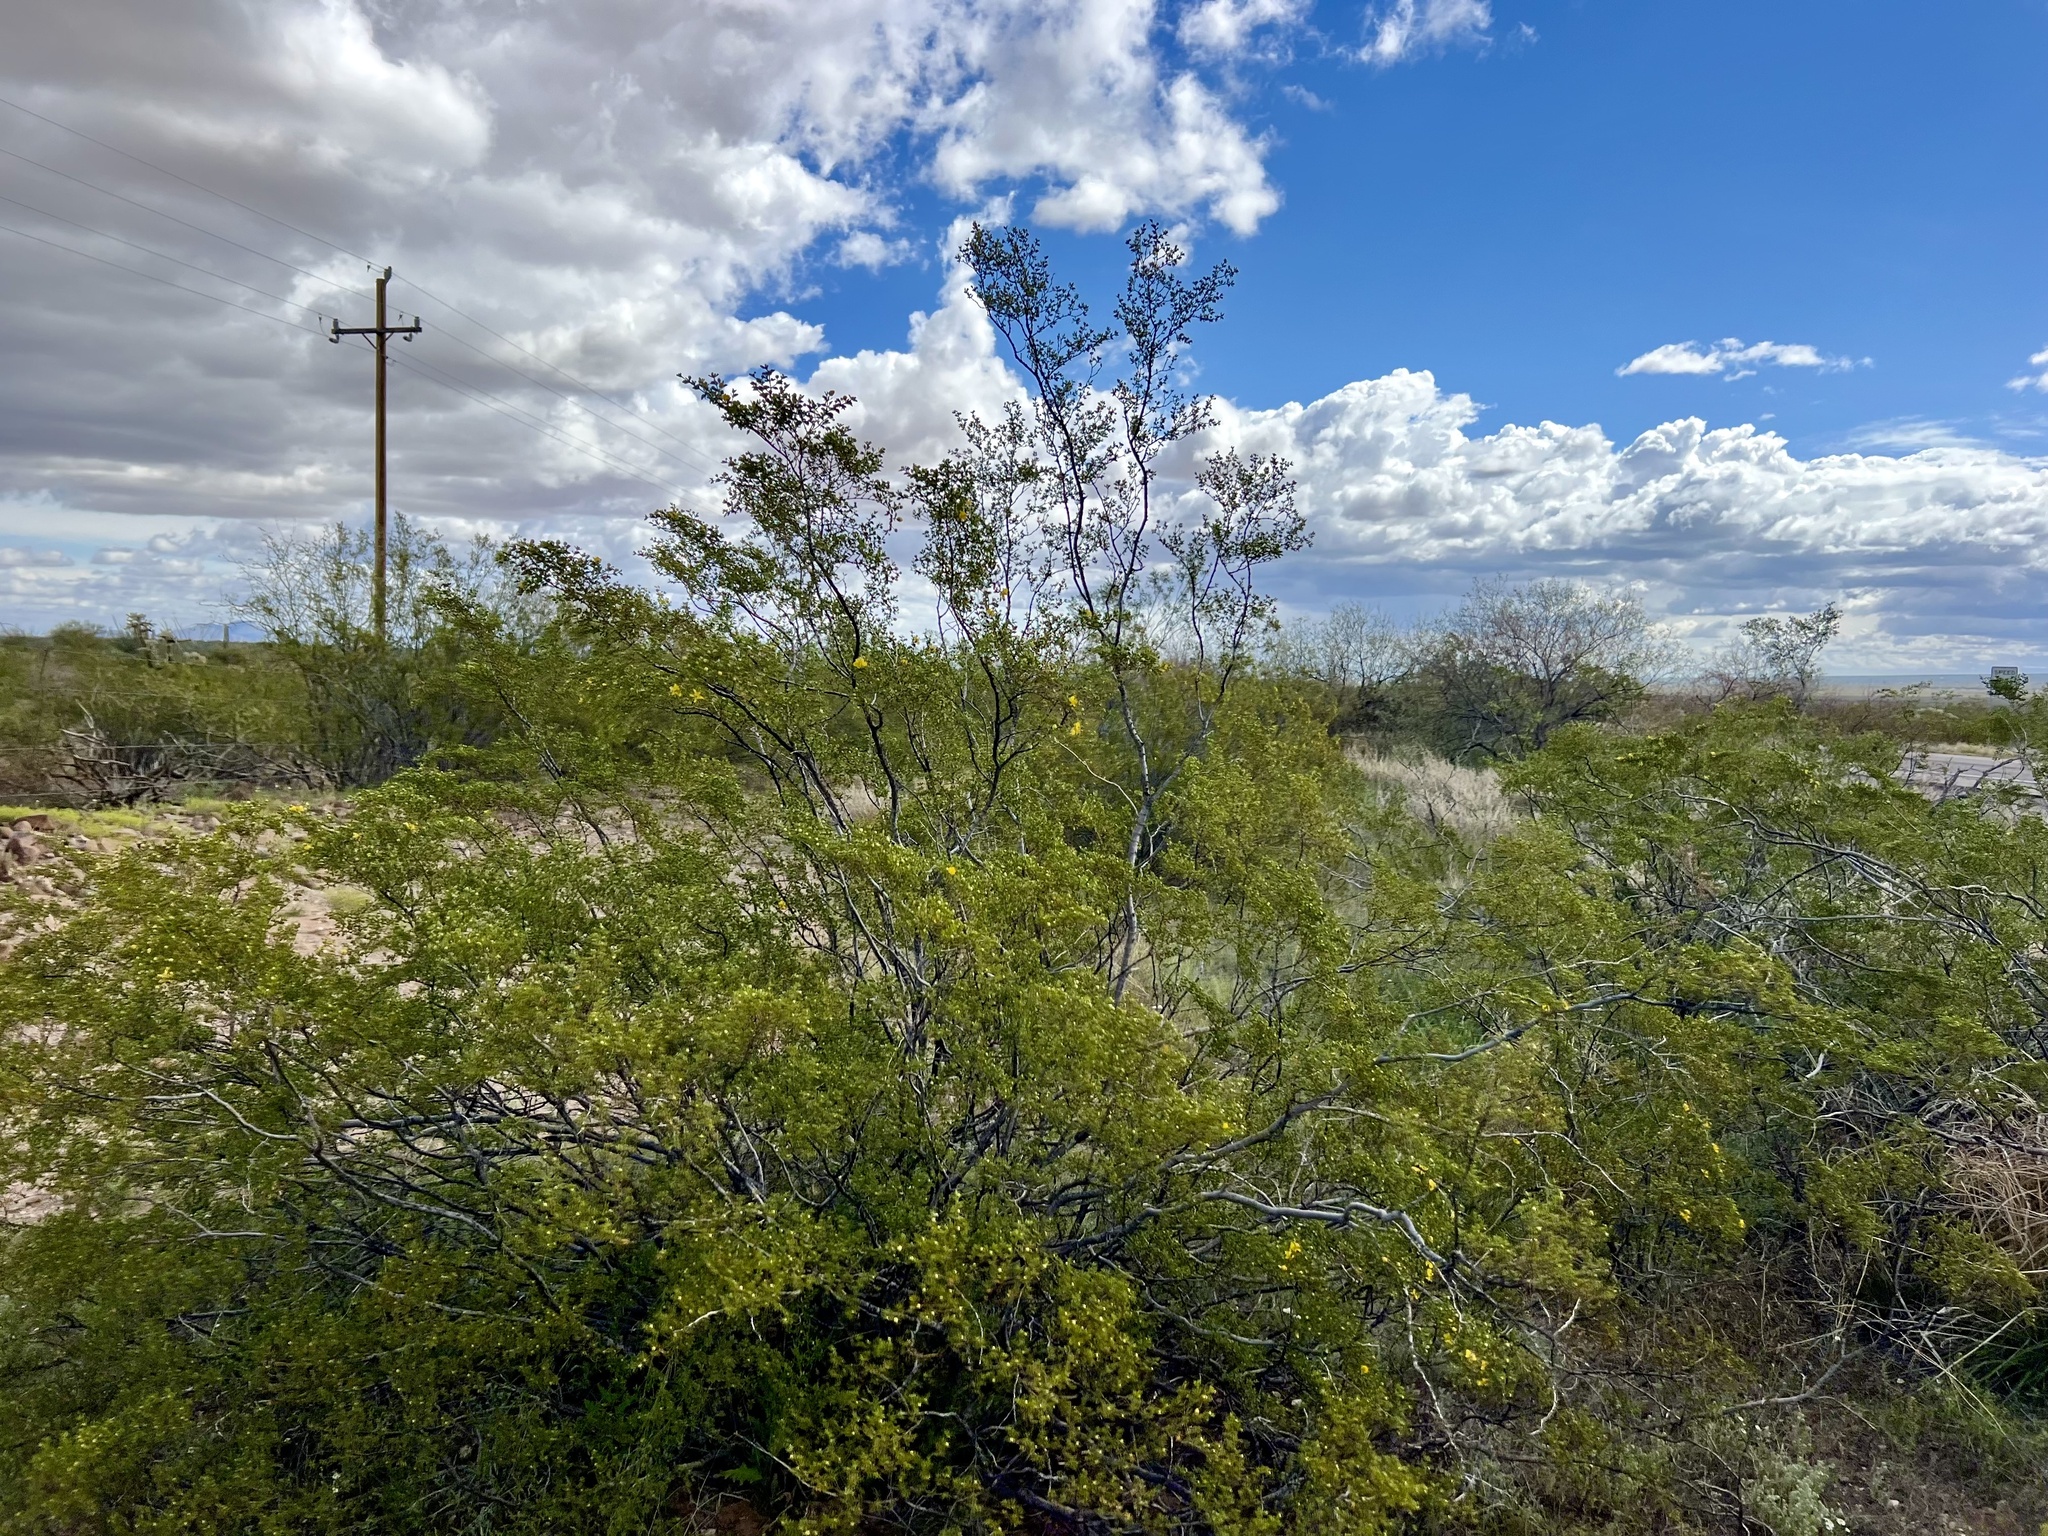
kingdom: Plantae
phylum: Tracheophyta
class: Magnoliopsida
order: Zygophyllales
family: Zygophyllaceae
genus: Larrea
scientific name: Larrea tridentata
